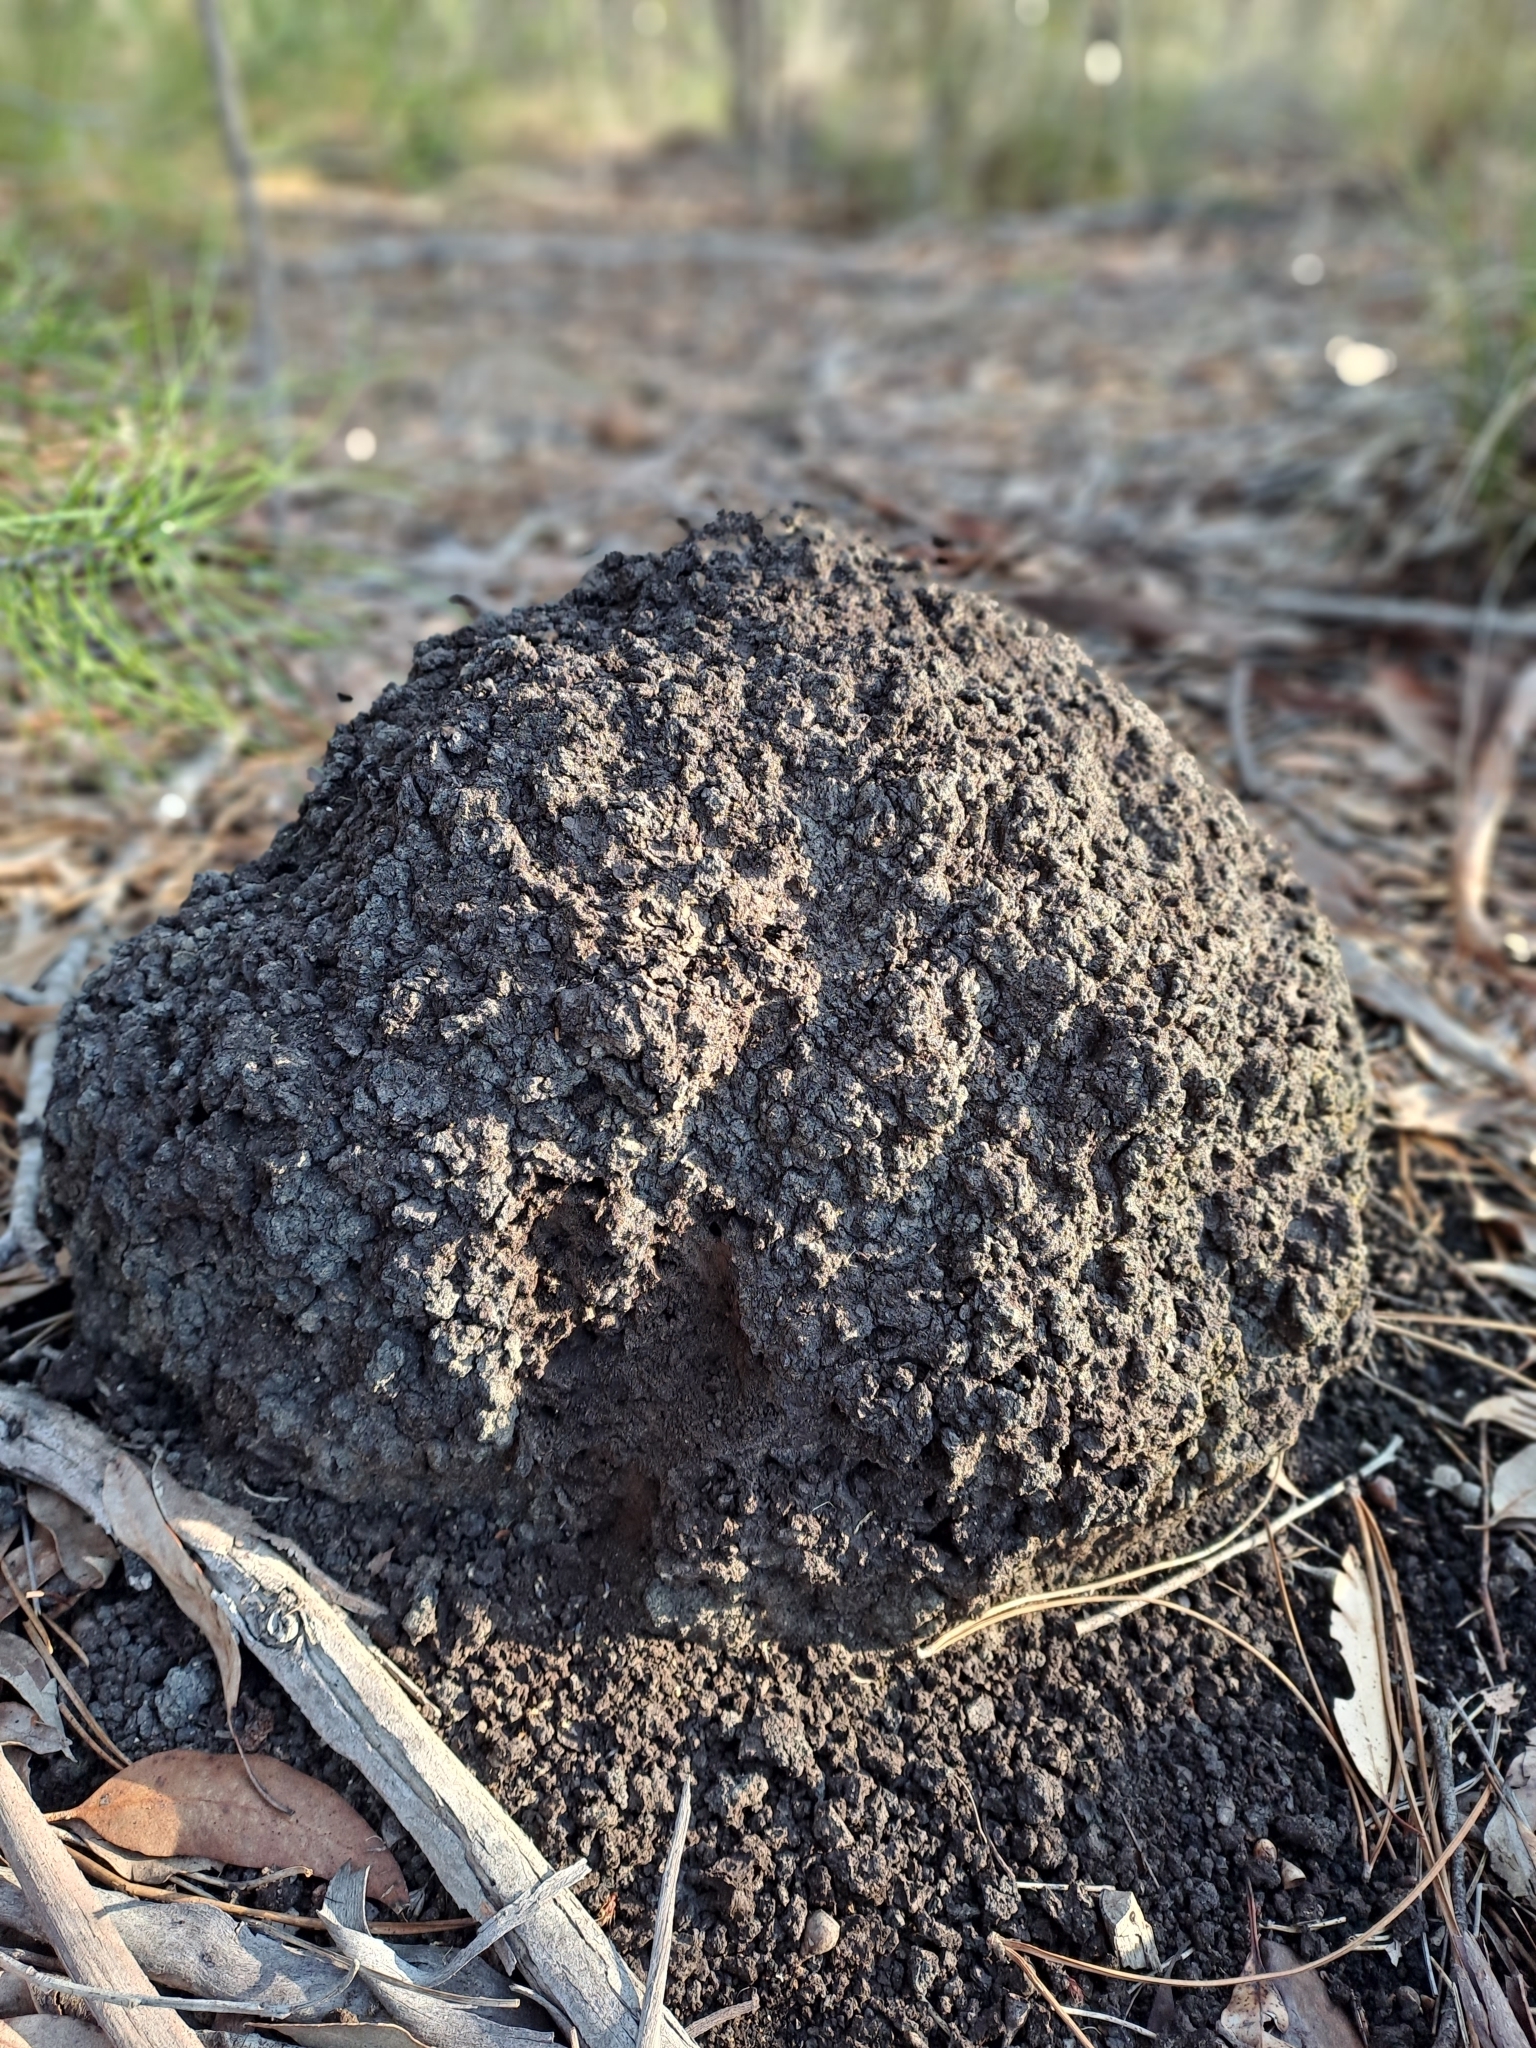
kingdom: Animalia
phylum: Arthropoda
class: Insecta
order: Blattodea
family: Termitidae
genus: Amitermes
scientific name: Amitermes hastatus
